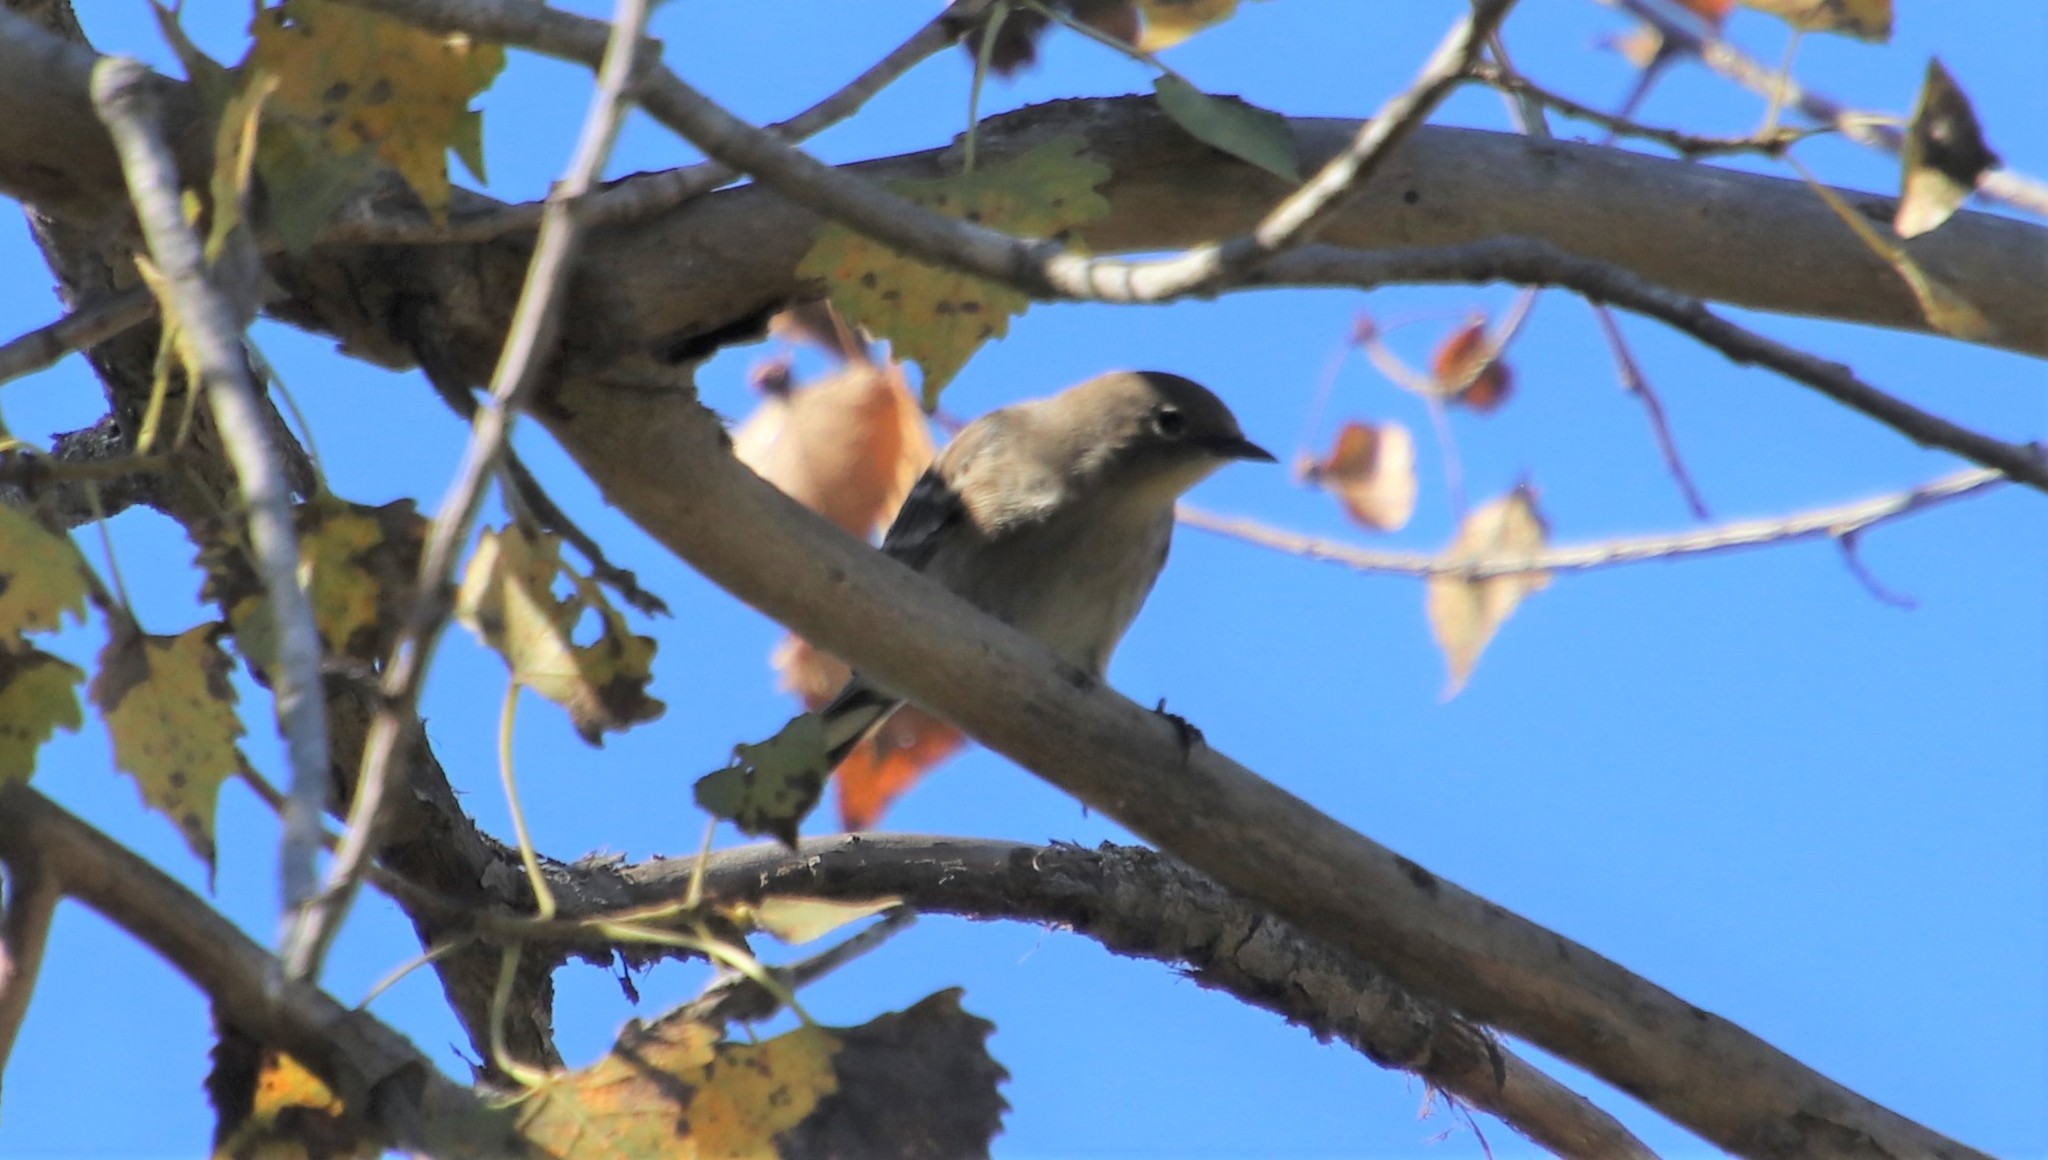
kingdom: Animalia
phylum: Chordata
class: Aves
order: Passeriformes
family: Parulidae
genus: Setophaga
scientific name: Setophaga auduboni
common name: Audubon's warbler
